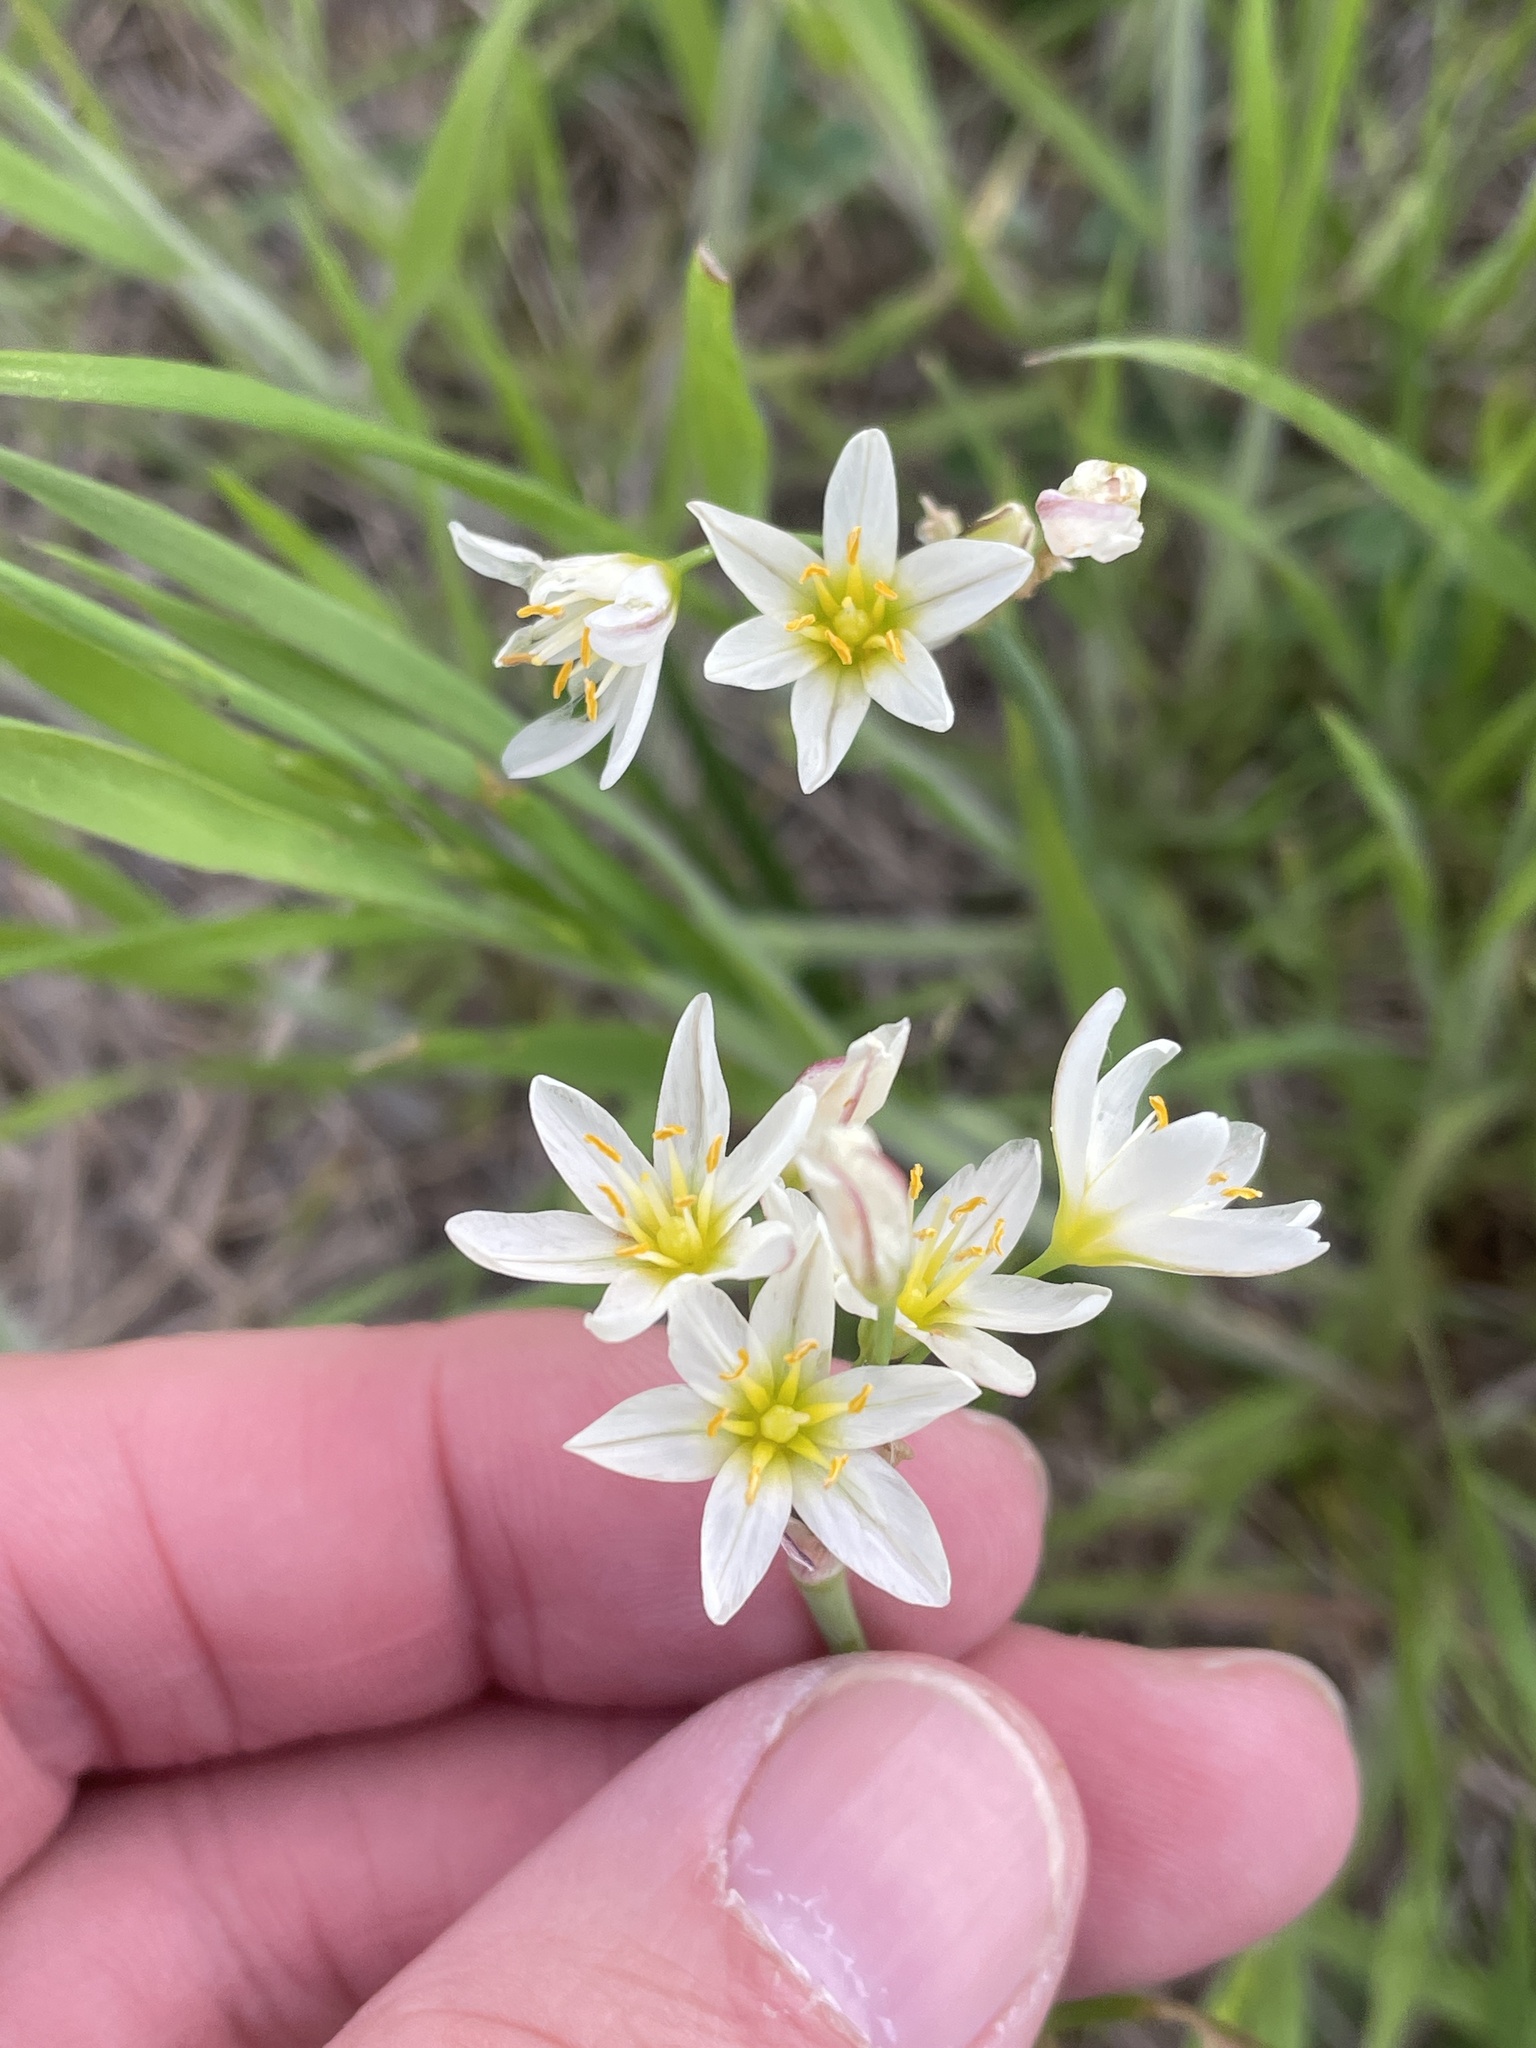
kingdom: Plantae
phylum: Tracheophyta
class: Liliopsida
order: Asparagales
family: Amaryllidaceae
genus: Nothoscordum
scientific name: Nothoscordum bivalve
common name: Crow-poison
